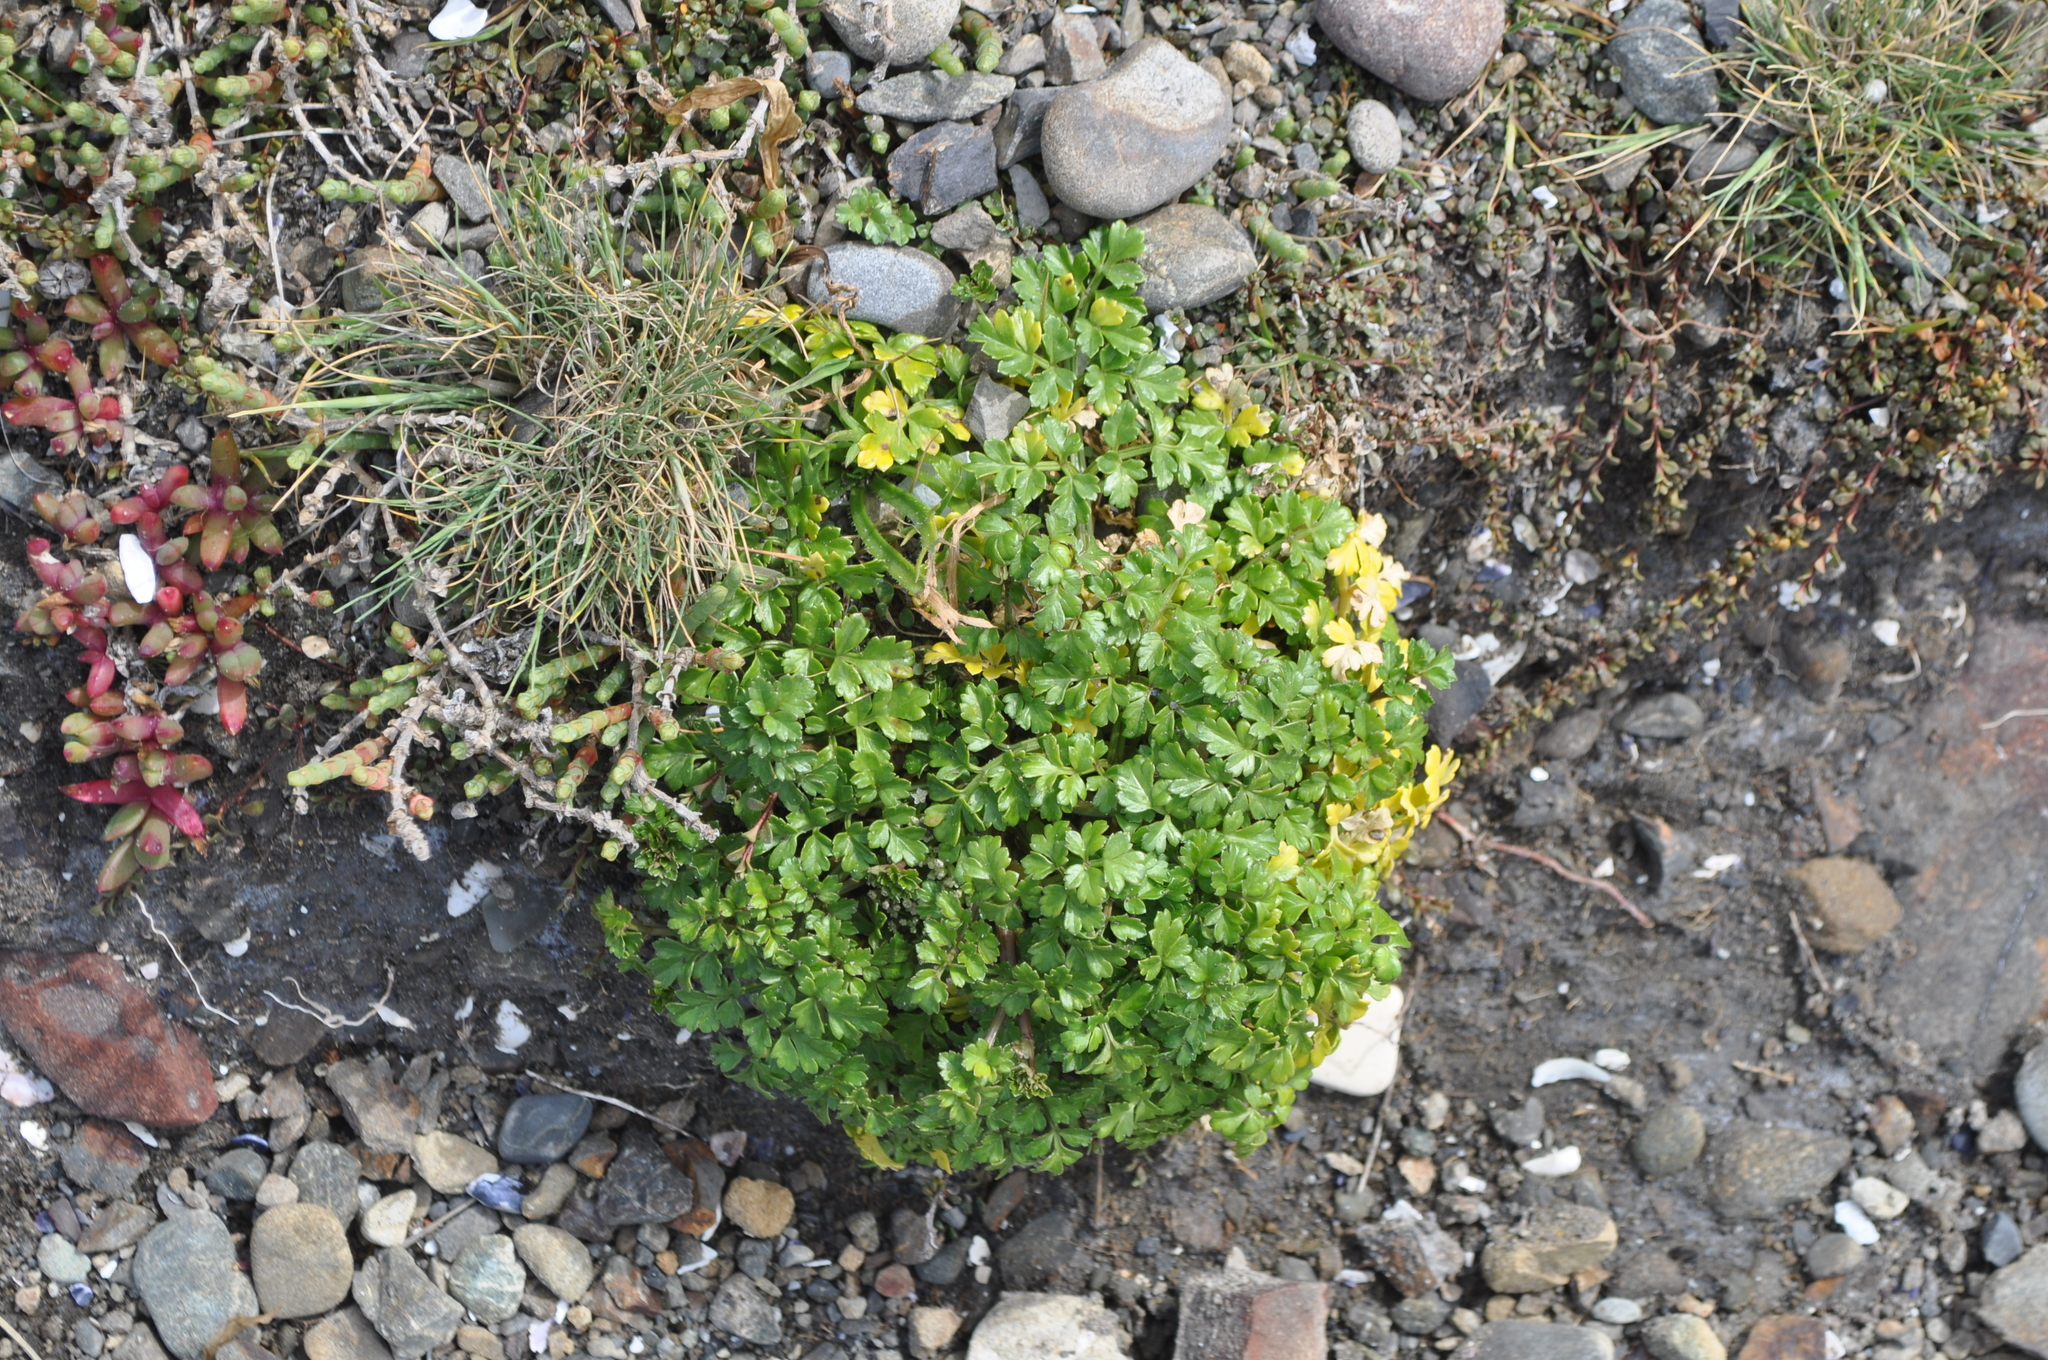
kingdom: Plantae
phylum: Tracheophyta
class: Magnoliopsida
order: Apiales
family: Apiaceae
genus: Apium
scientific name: Apium prostratum
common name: Prostrate marshwort
